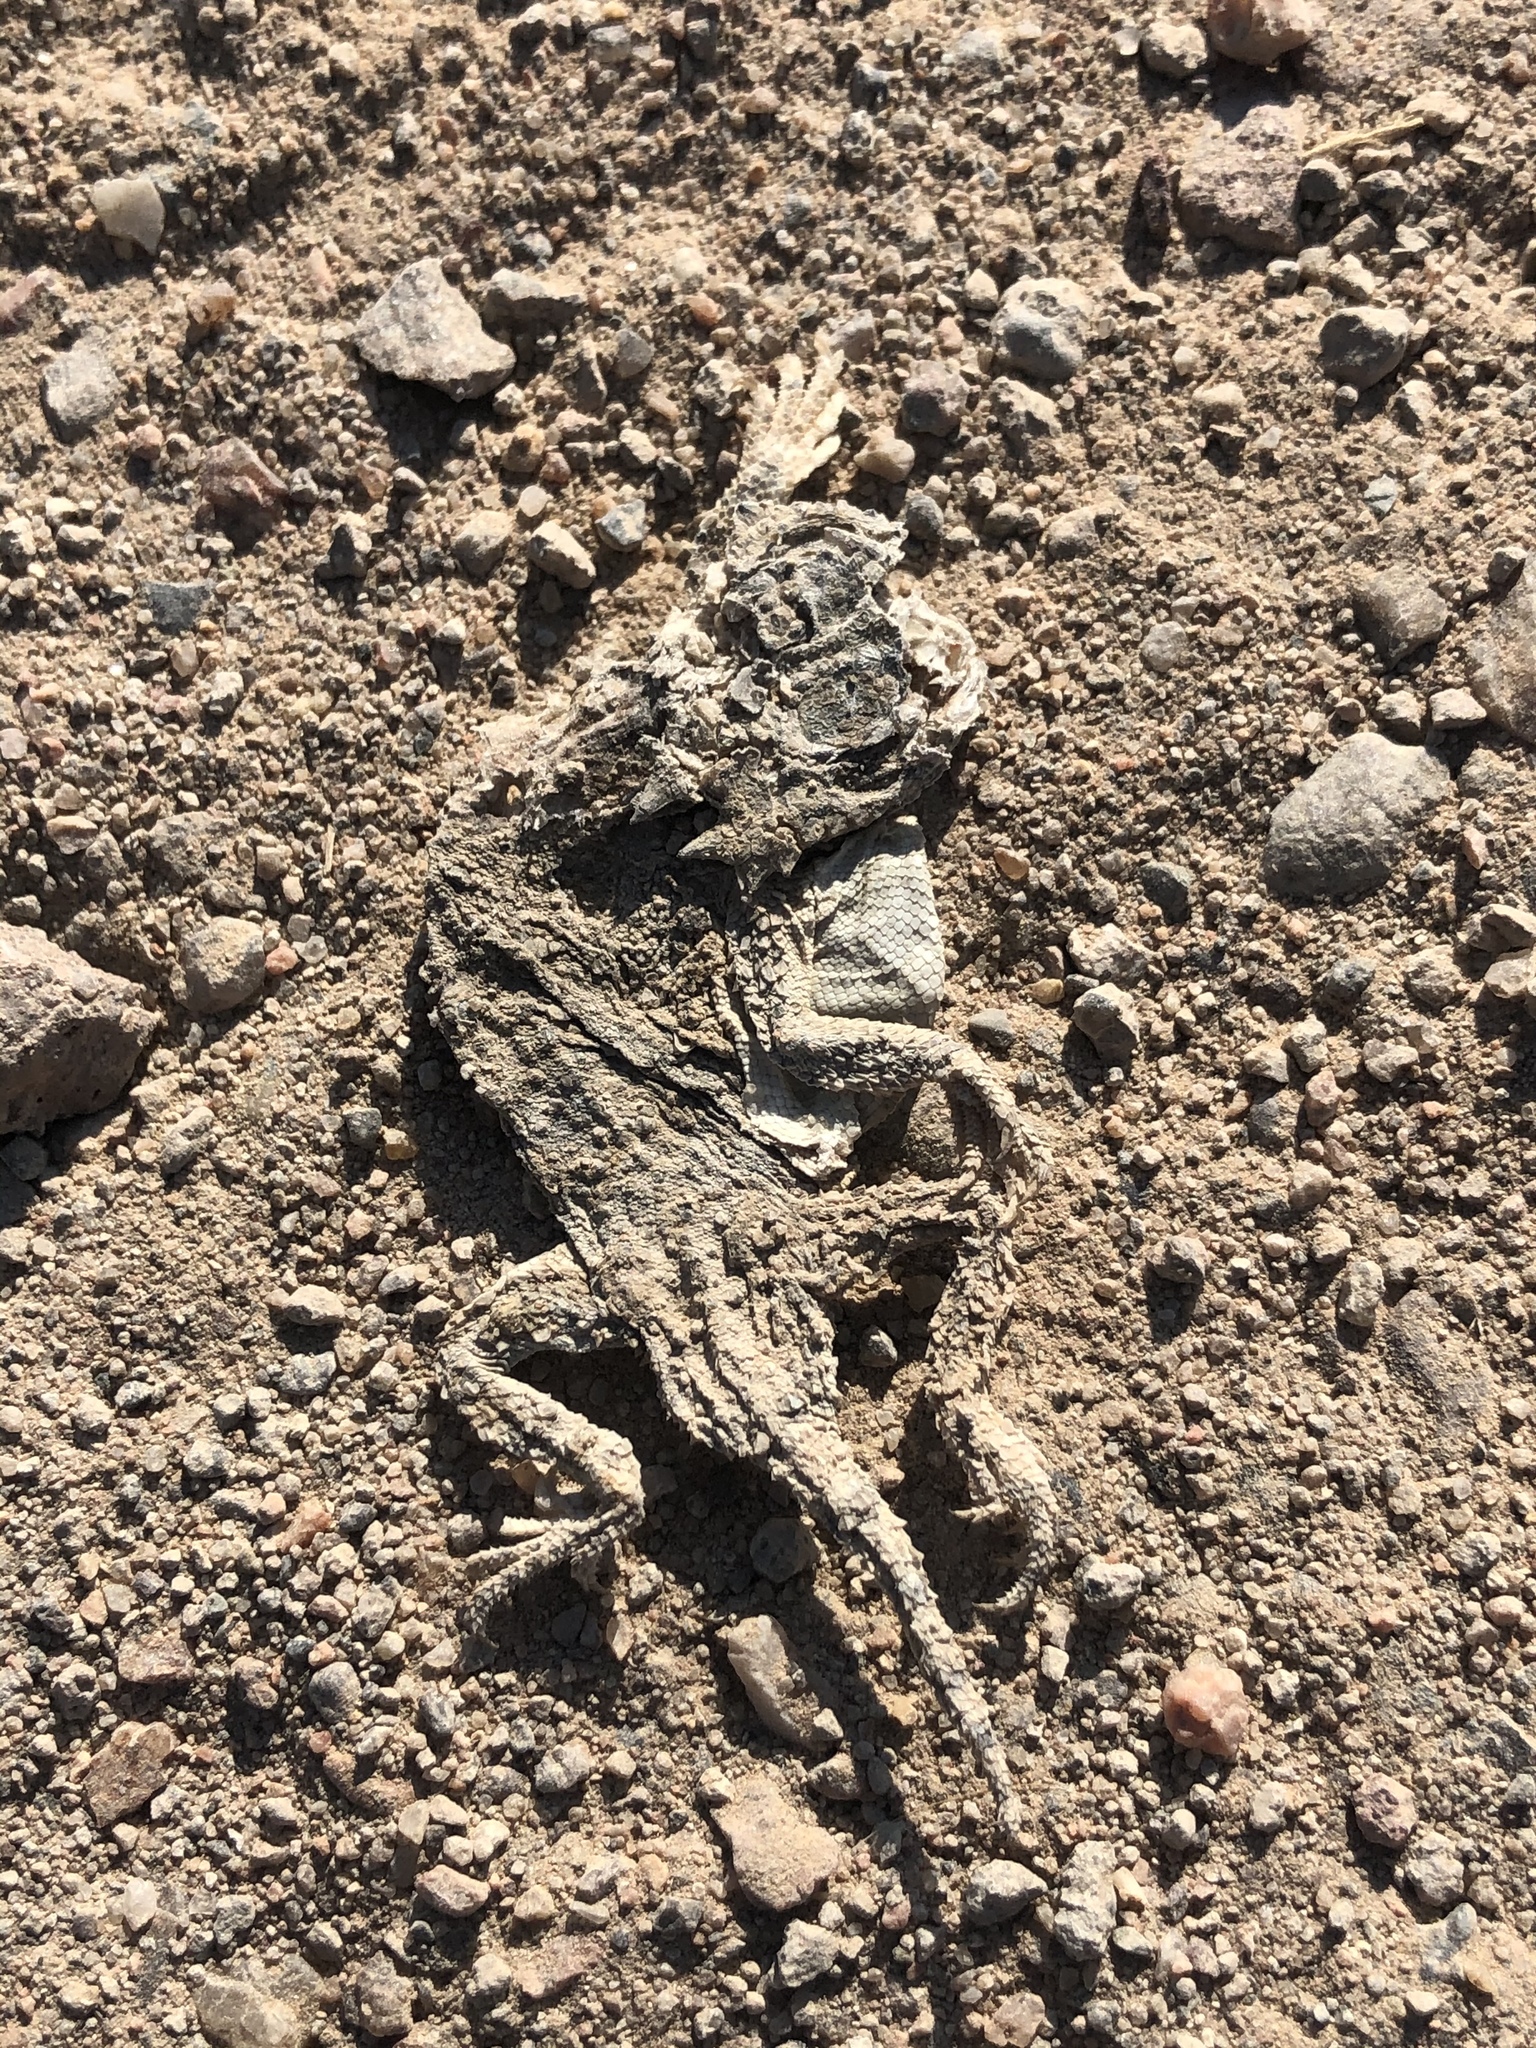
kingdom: Animalia
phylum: Chordata
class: Squamata
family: Phrynosomatidae
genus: Phrynosoma
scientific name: Phrynosoma modestum
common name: Roundtail horned lizard
